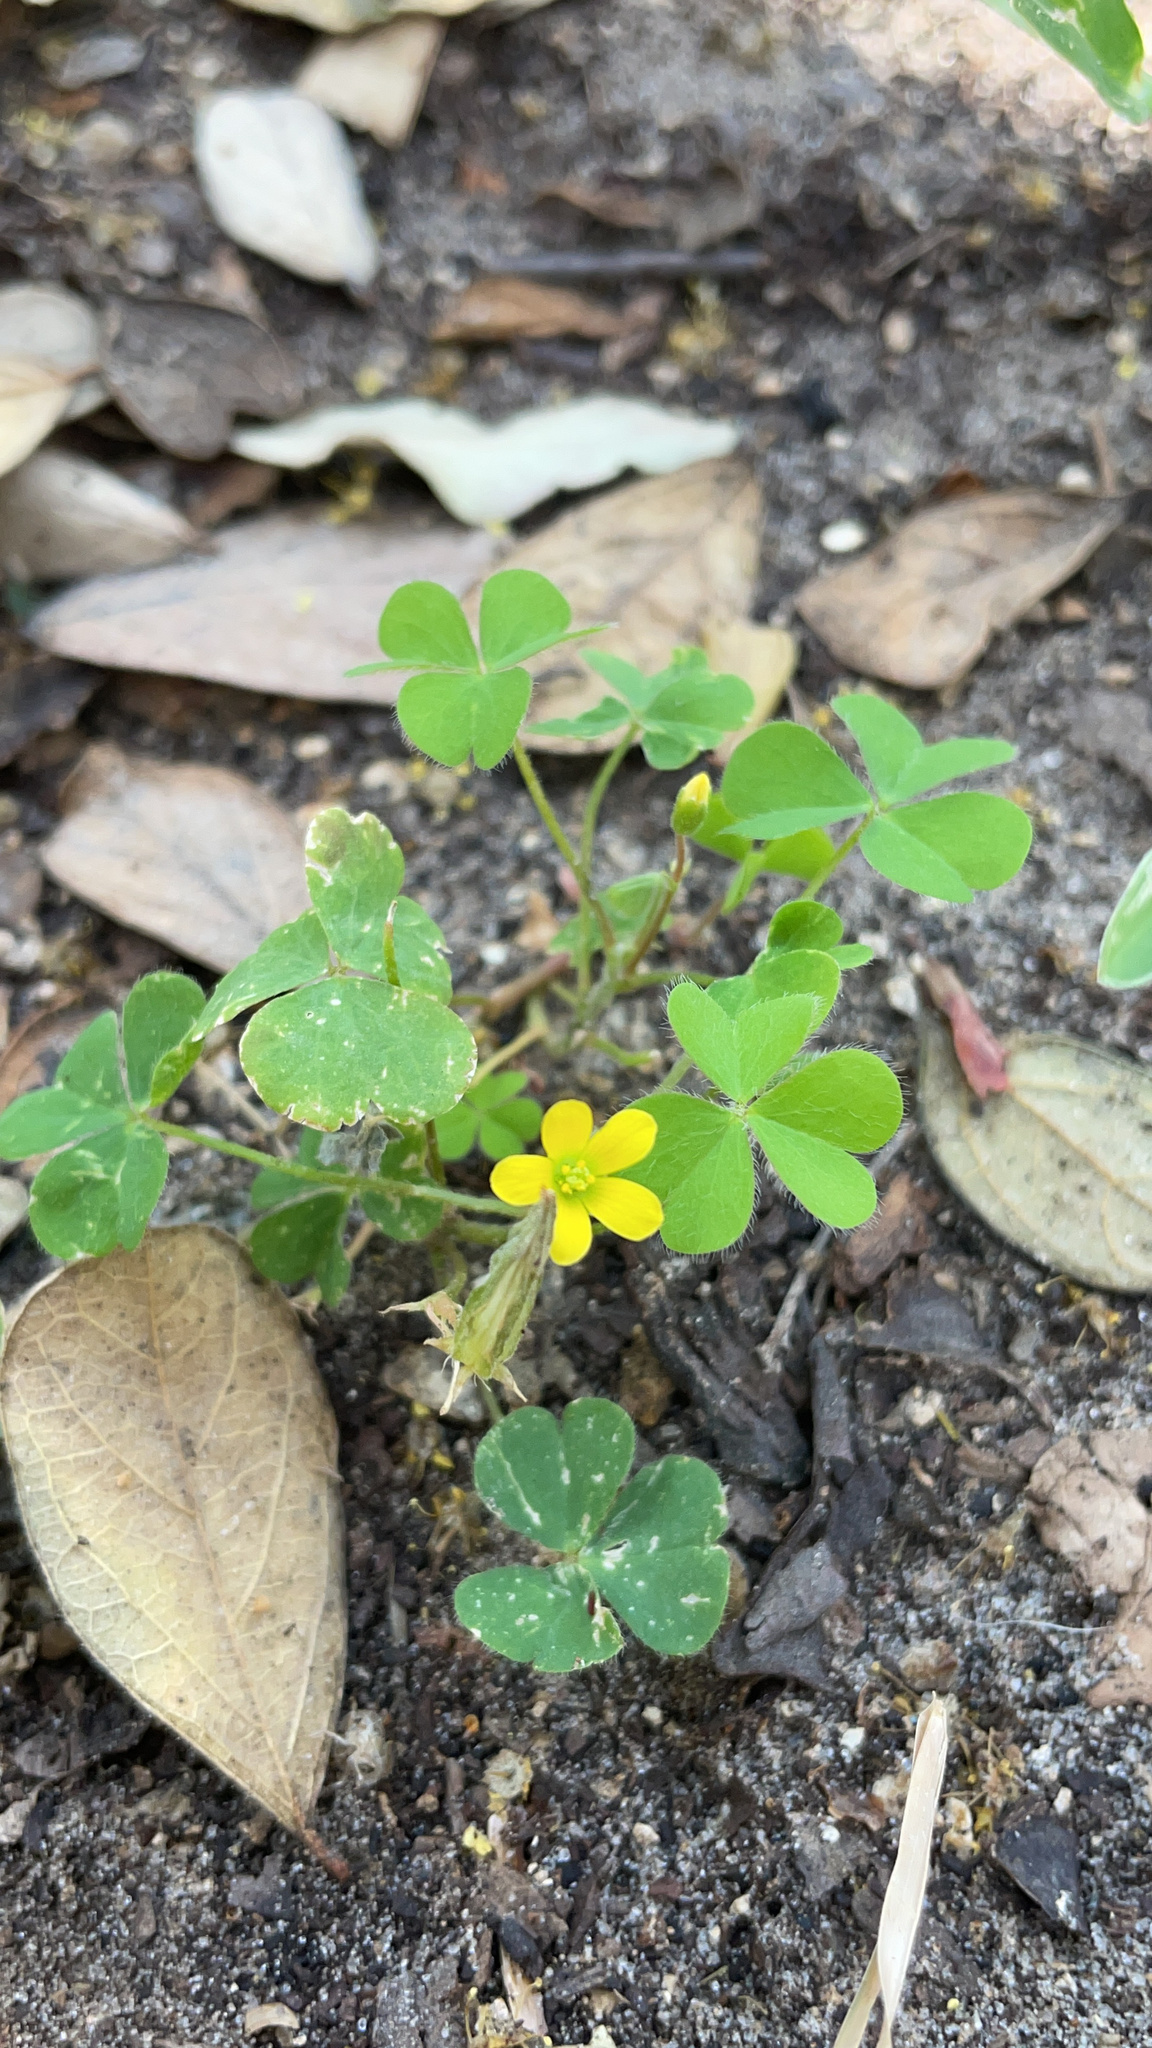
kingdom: Plantae
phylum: Tracheophyta
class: Magnoliopsida
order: Oxalidales
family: Oxalidaceae
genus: Oxalis
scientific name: Oxalis corniculata
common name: Procumbent yellow-sorrel
